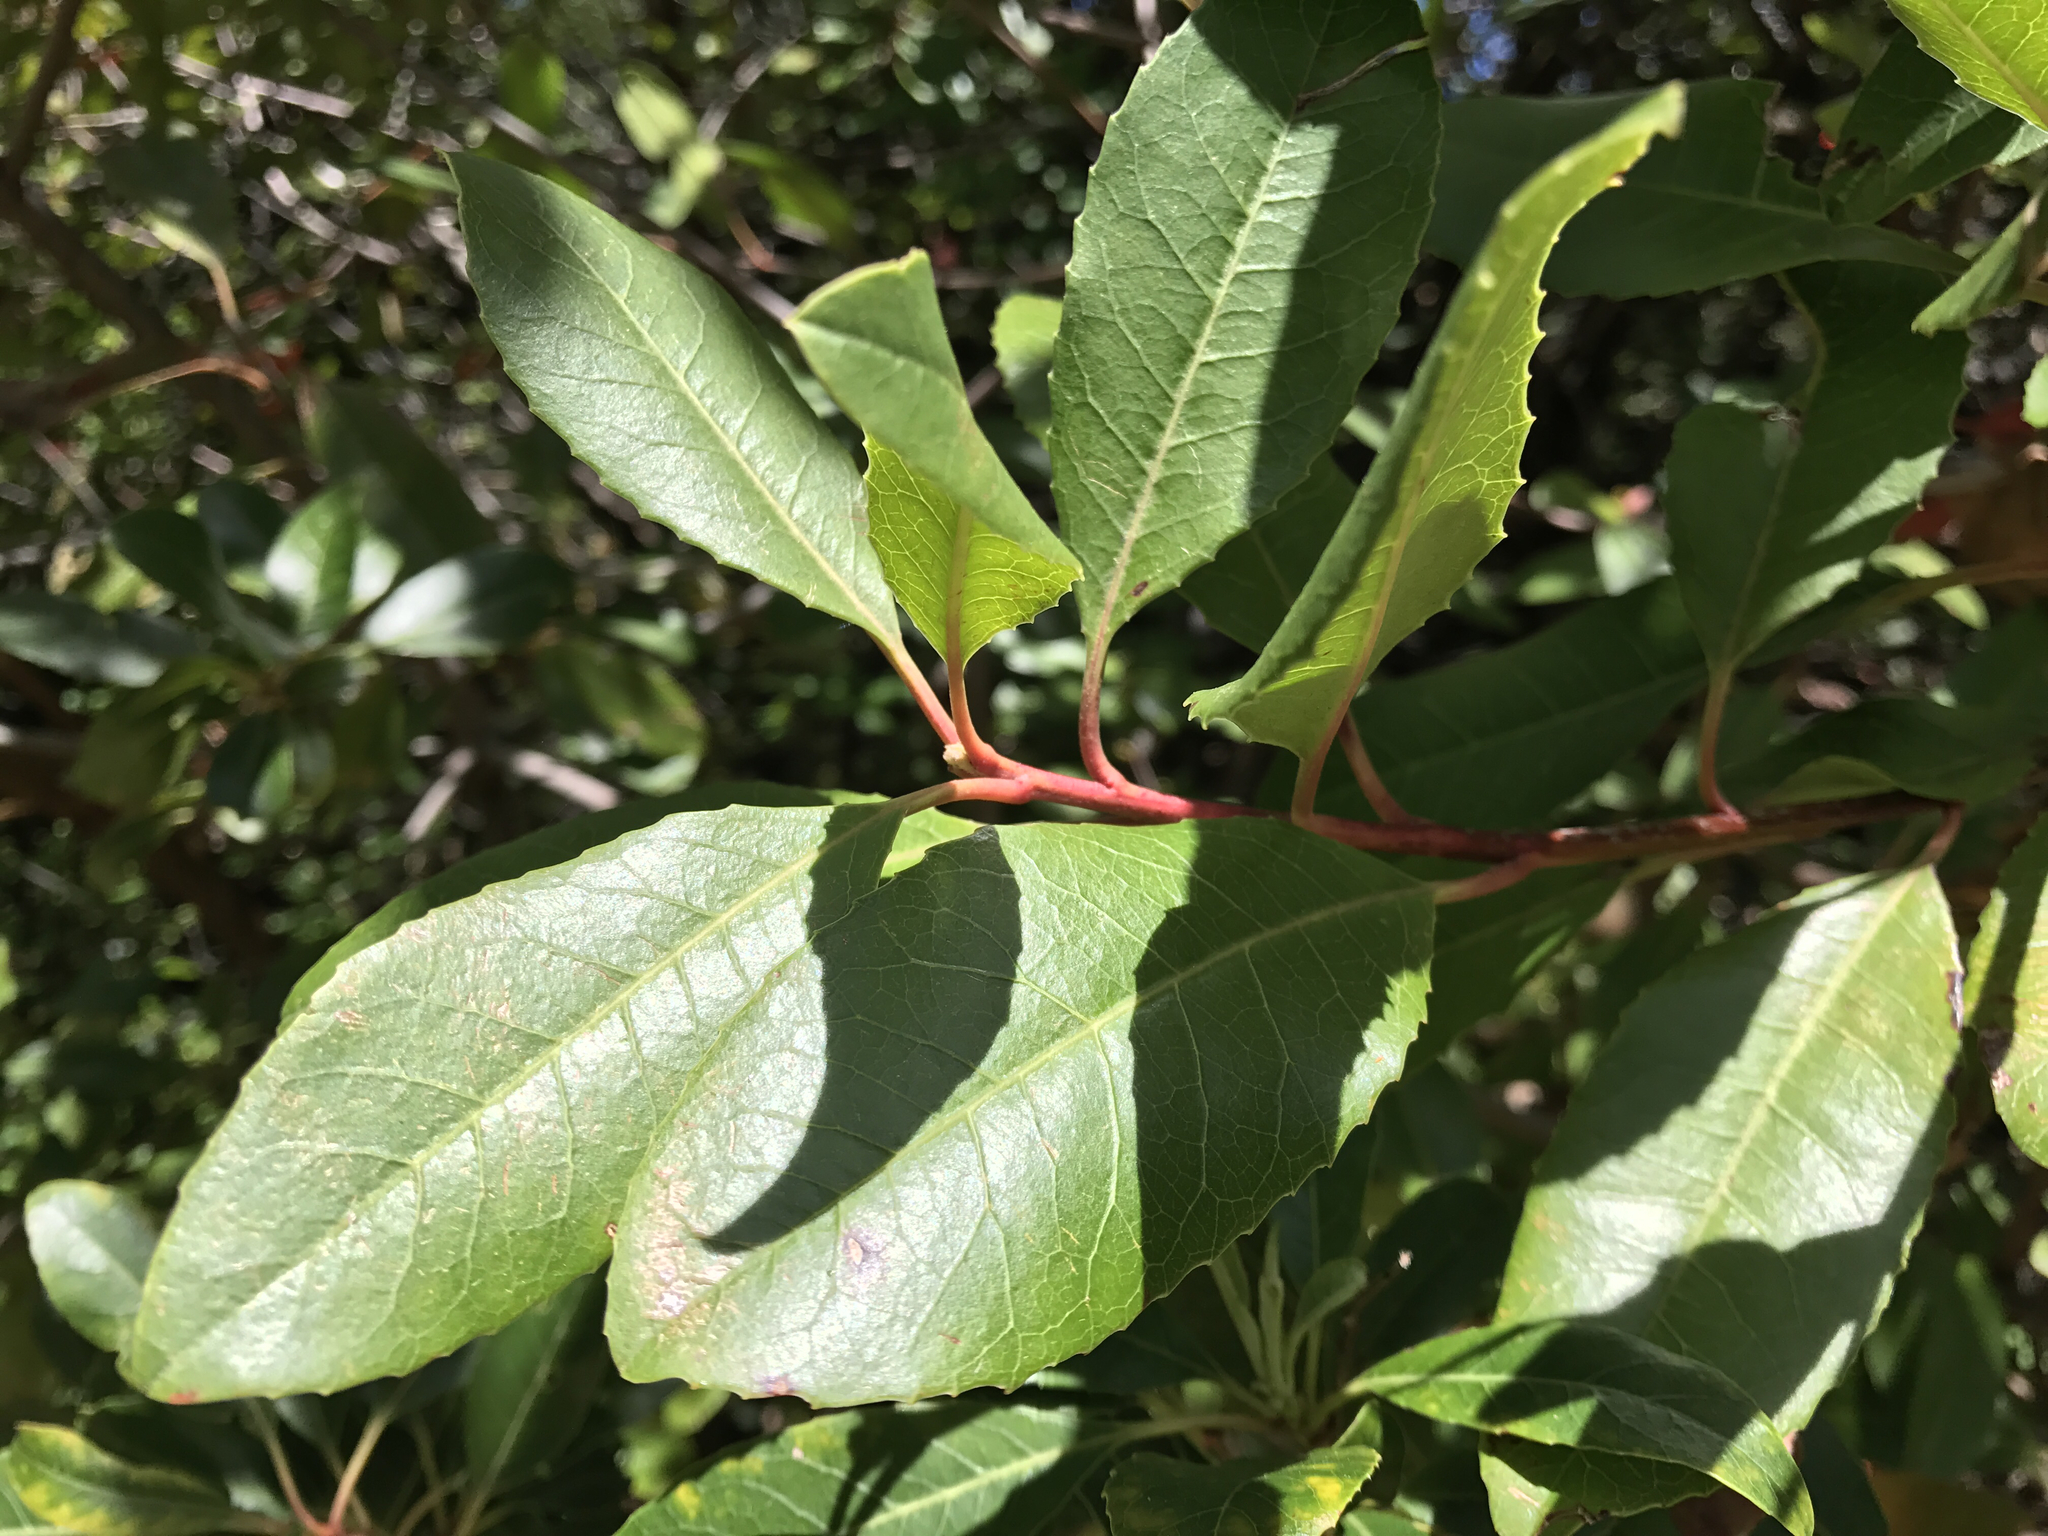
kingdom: Plantae
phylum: Tracheophyta
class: Magnoliopsida
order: Rosales
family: Rosaceae
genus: Heteromeles
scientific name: Heteromeles arbutifolia
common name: California-holly
